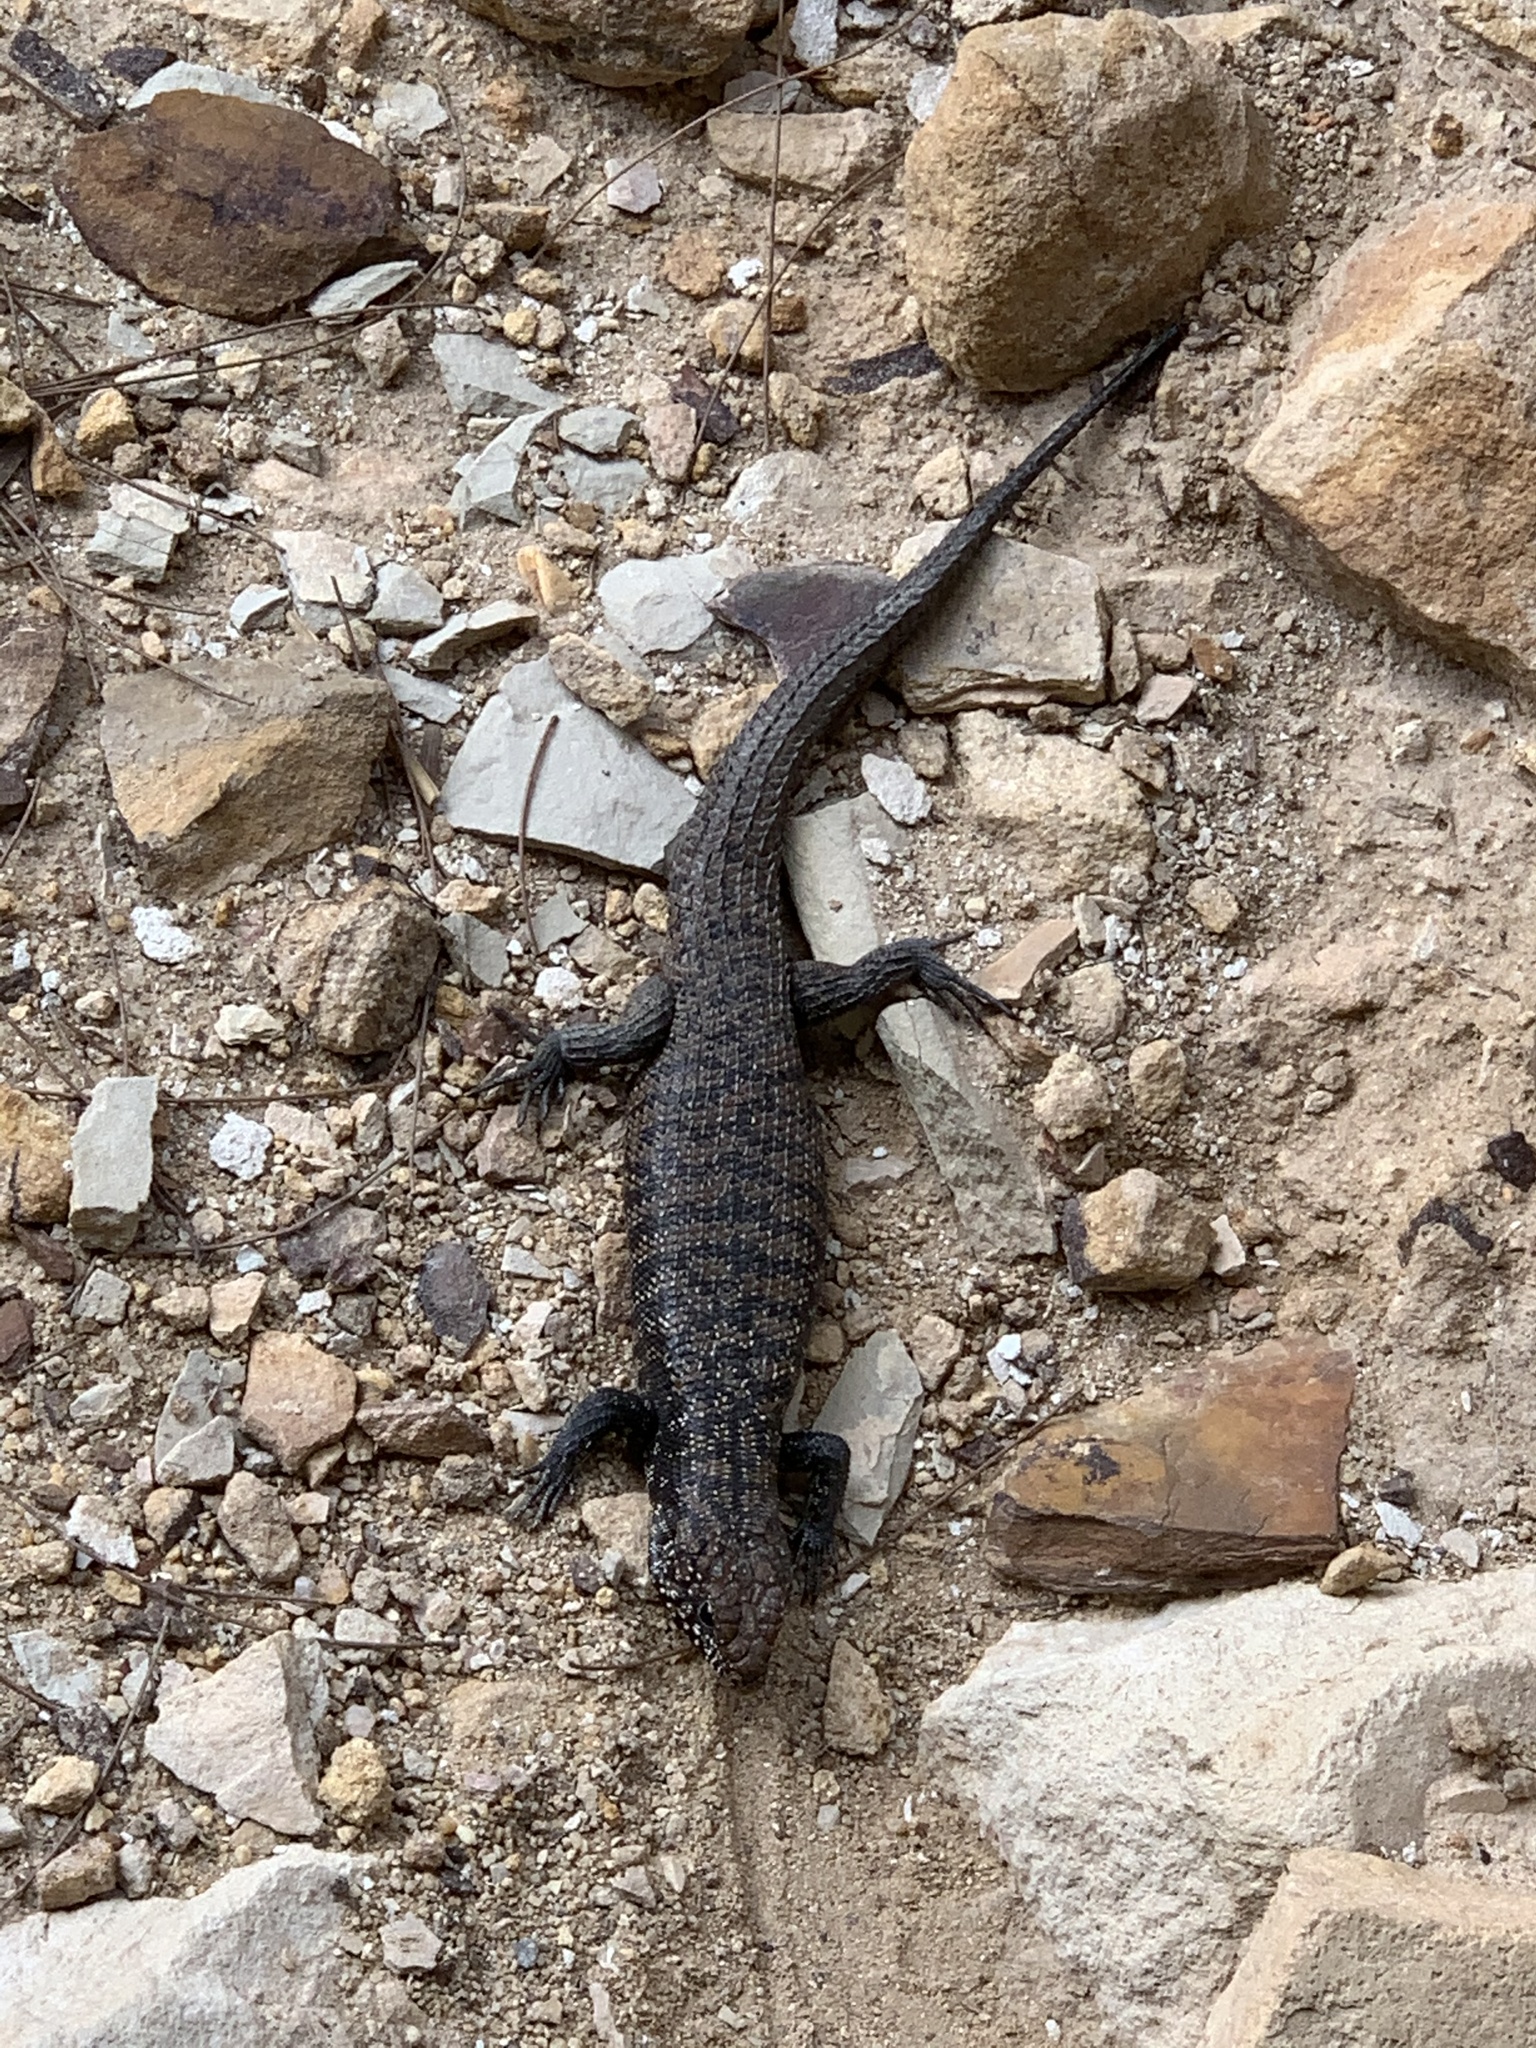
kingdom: Animalia
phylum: Chordata
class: Squamata
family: Scincidae
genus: Egernia
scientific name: Egernia cunninghami
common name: Cunningham's skink
